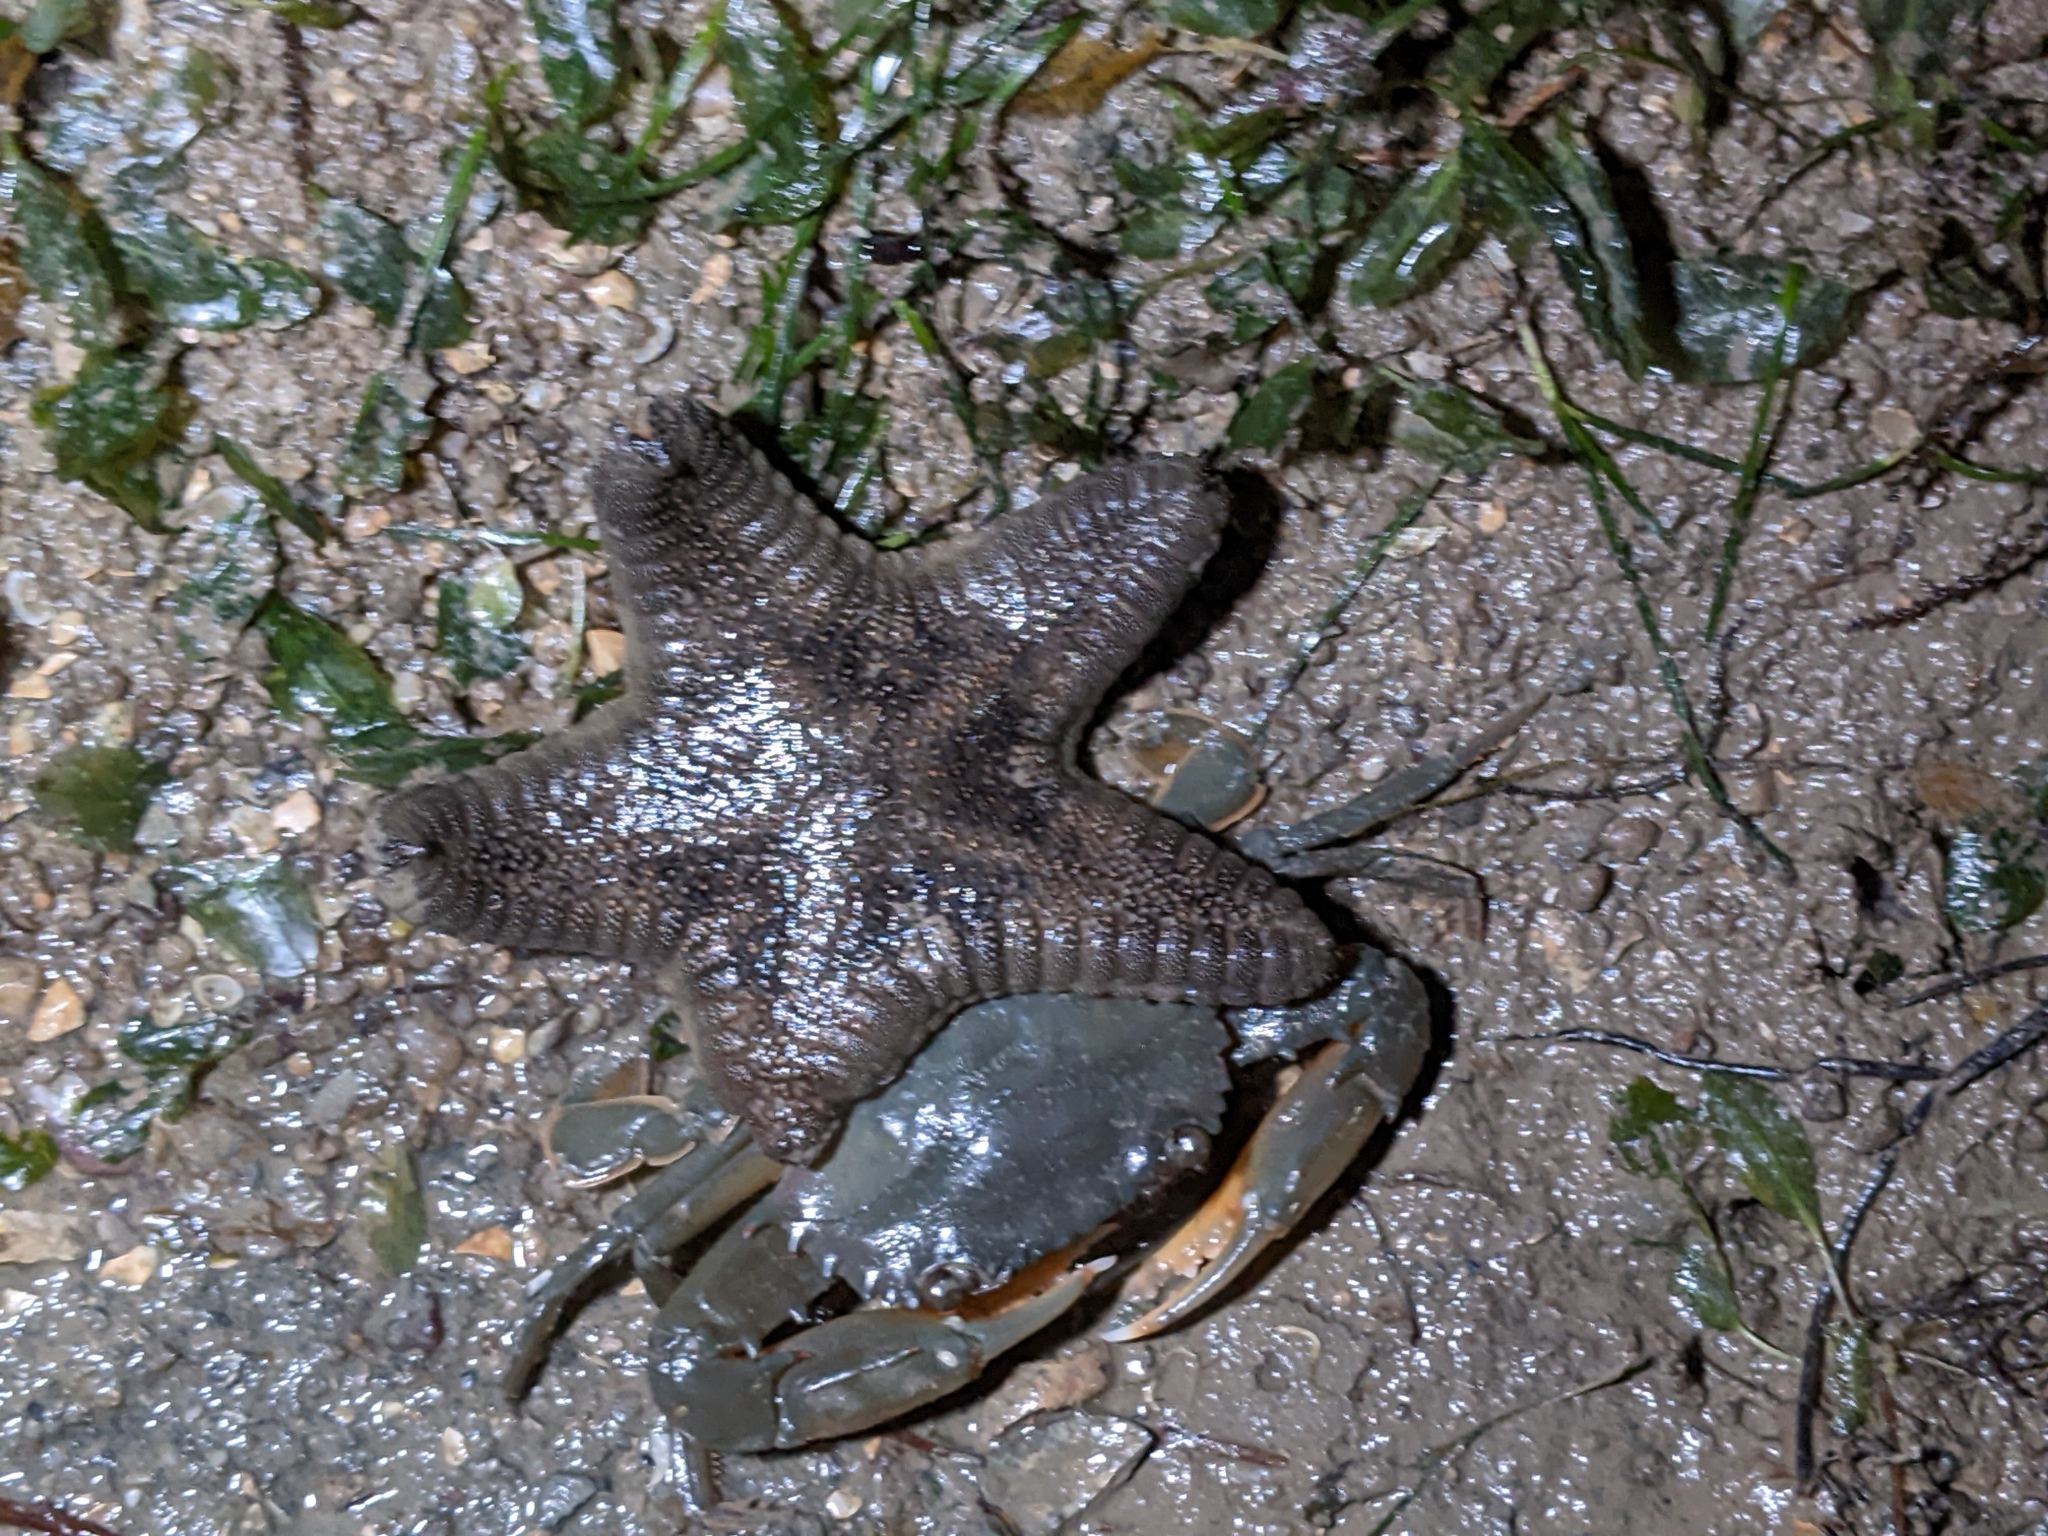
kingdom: Animalia
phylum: Echinodermata
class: Asteroidea
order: Valvatida
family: Goniasteridae
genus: Goniodiscaster
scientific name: Goniodiscaster scaber
